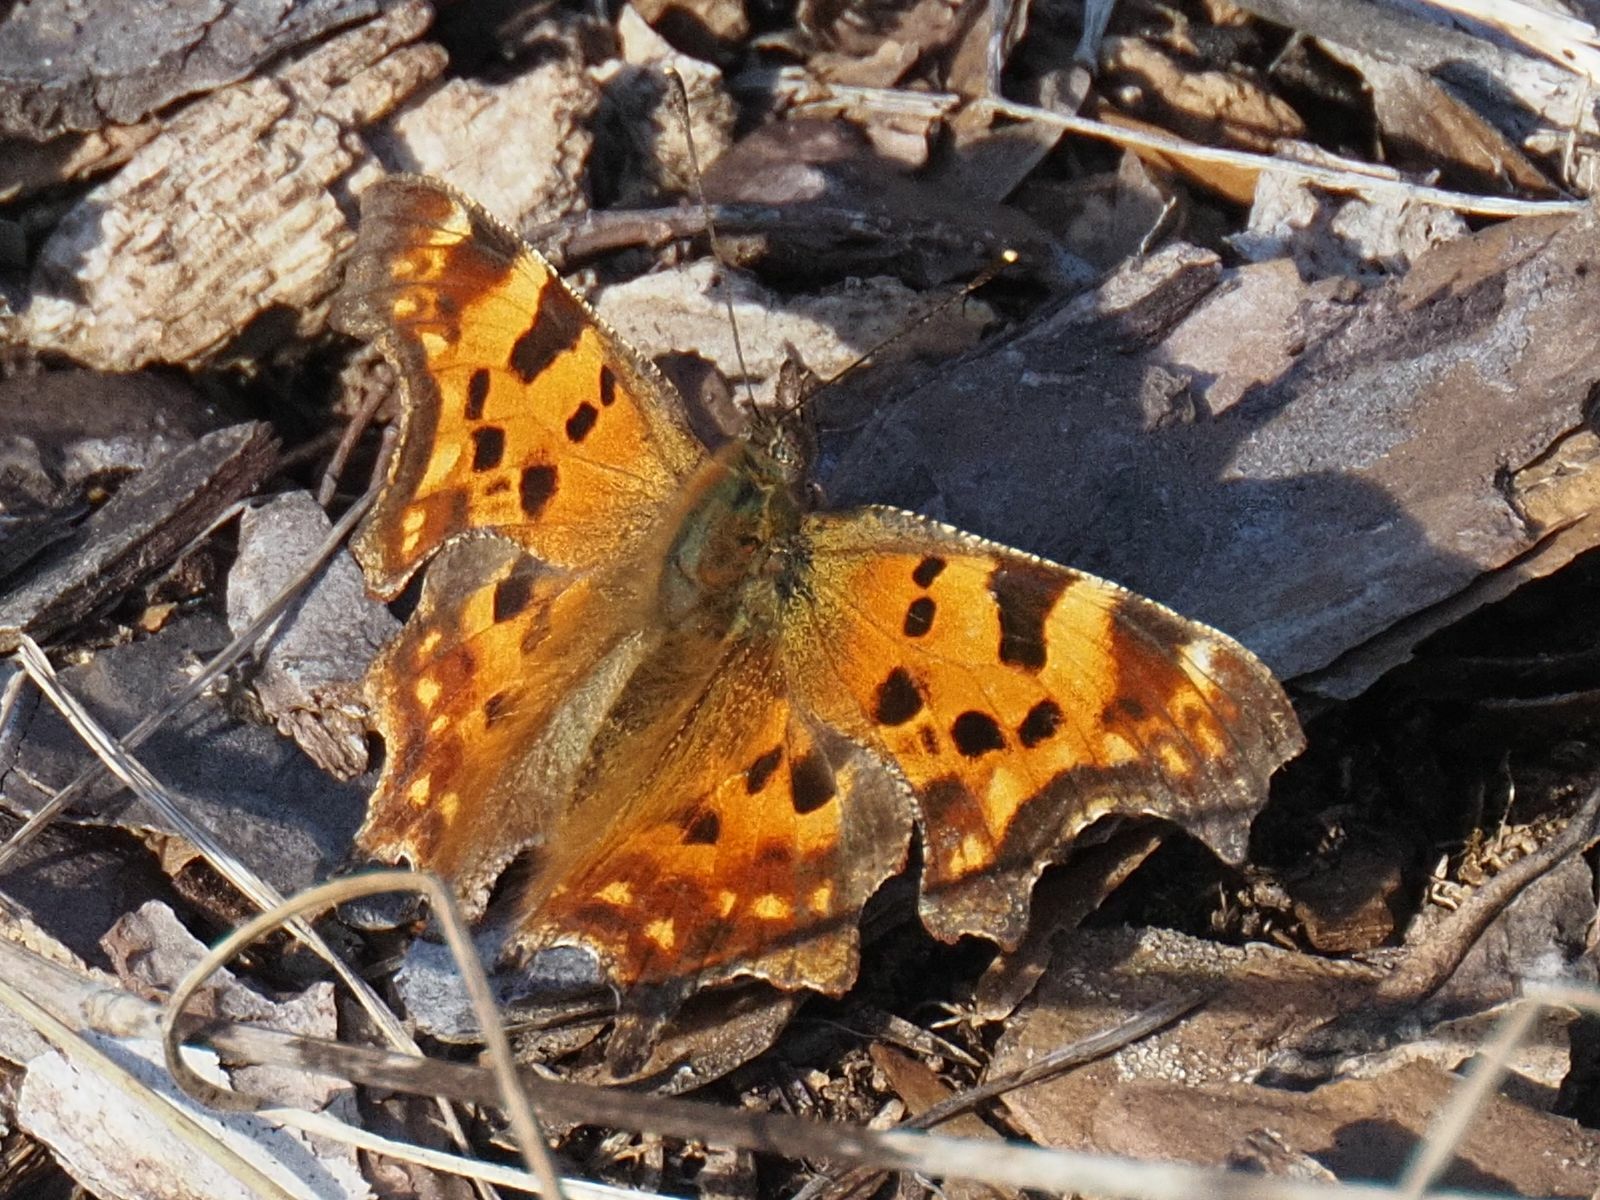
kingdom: Animalia
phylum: Arthropoda
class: Insecta
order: Lepidoptera
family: Nymphalidae
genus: Polygonia
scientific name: Polygonia c-album
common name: Comma
